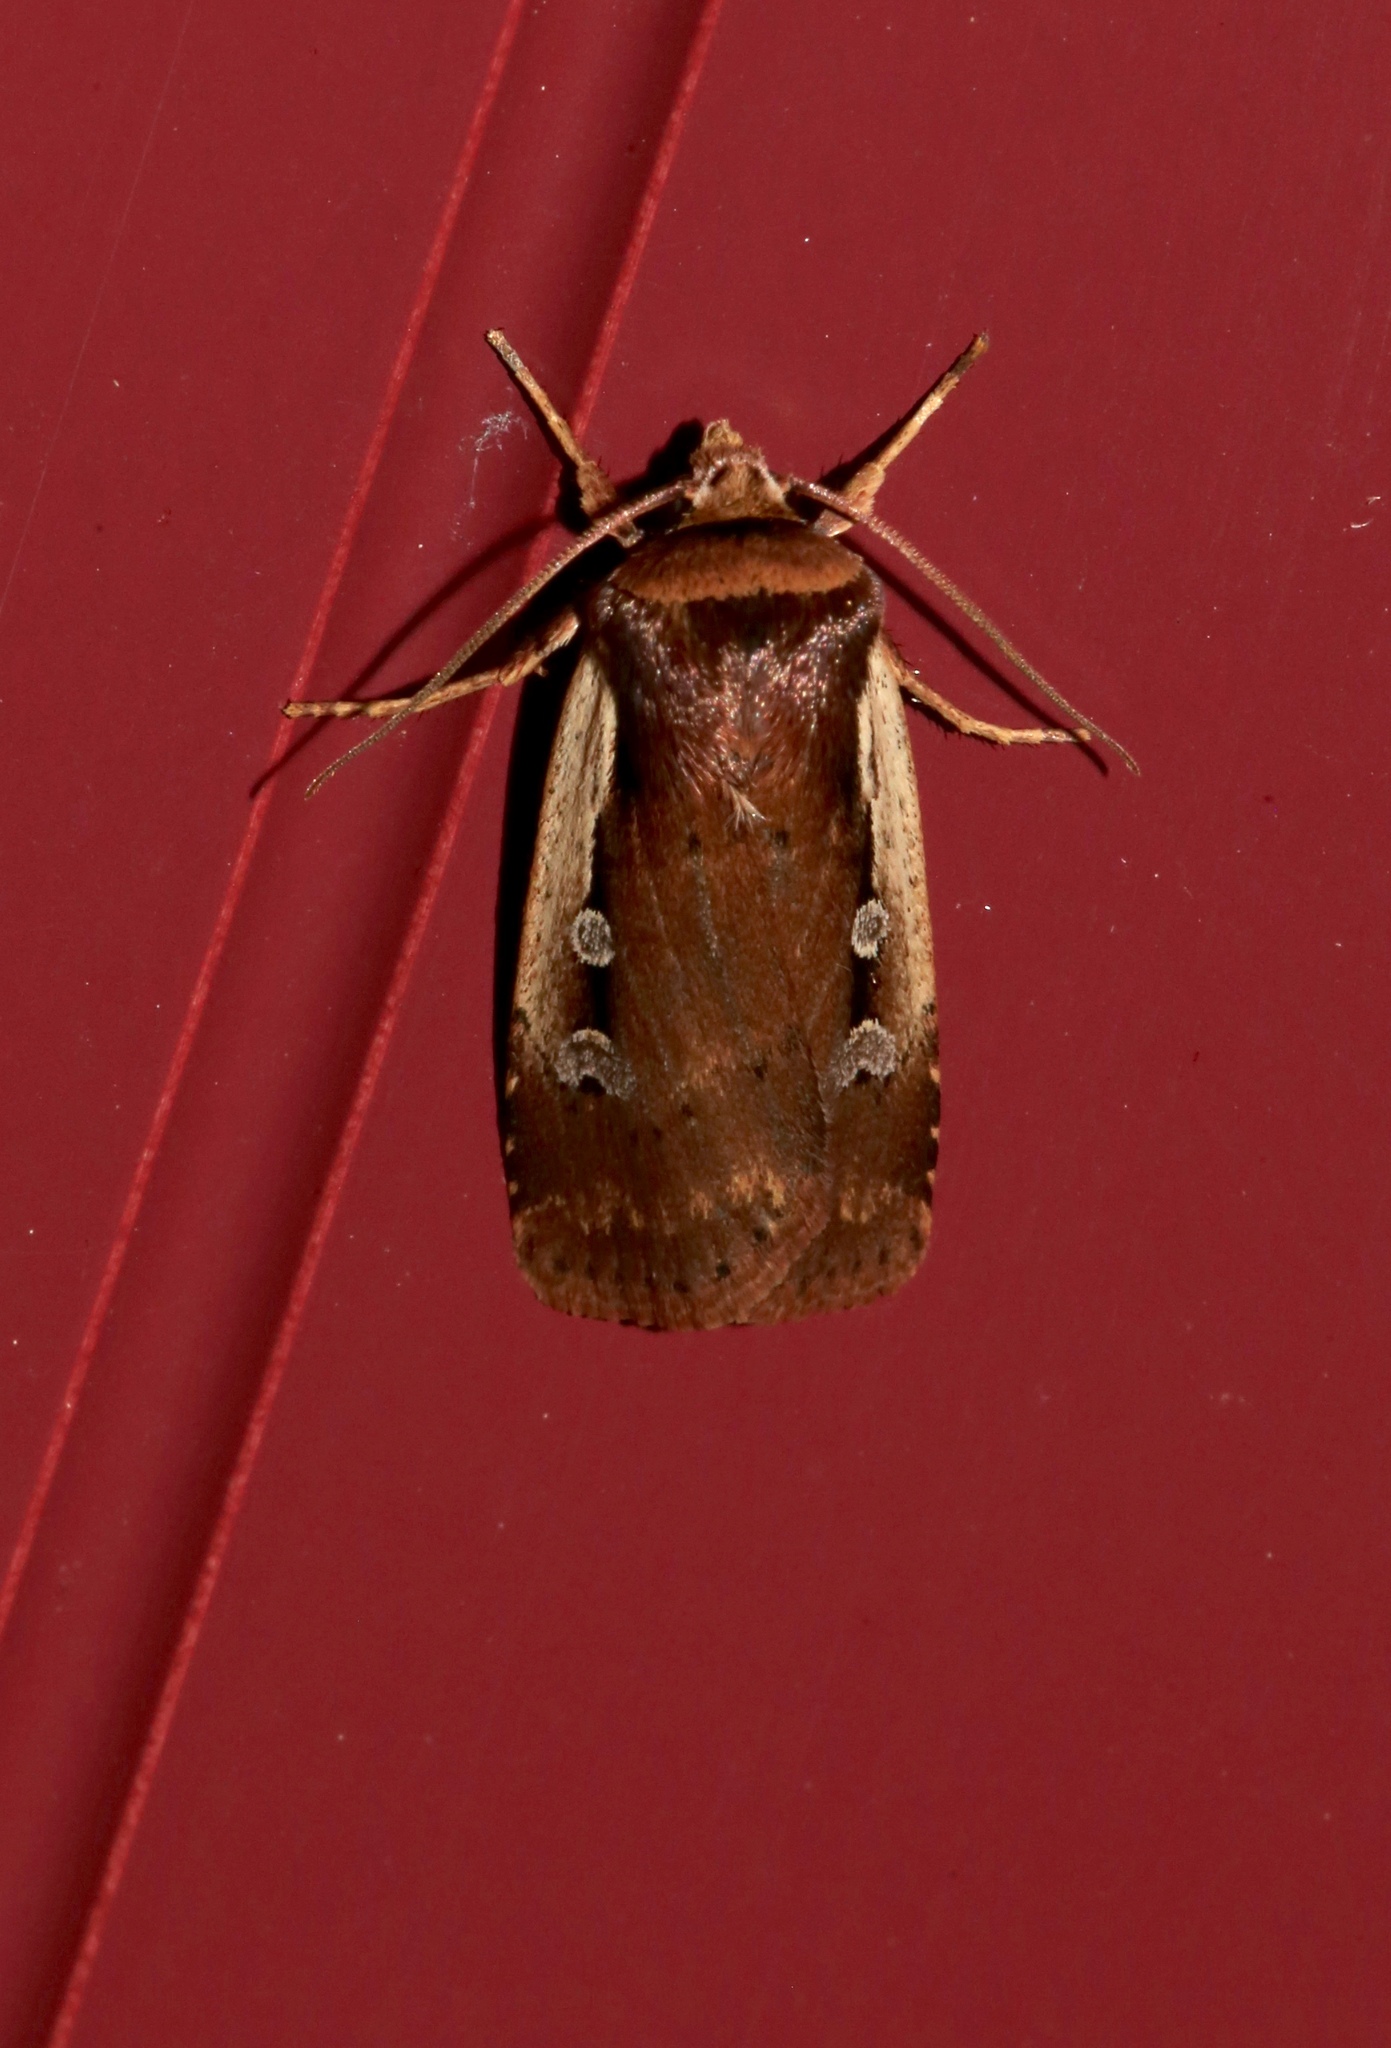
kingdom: Animalia
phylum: Arthropoda
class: Insecta
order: Lepidoptera
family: Noctuidae
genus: Ochropleura
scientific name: Ochropleura implecta
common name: Flame-shouldered dart
